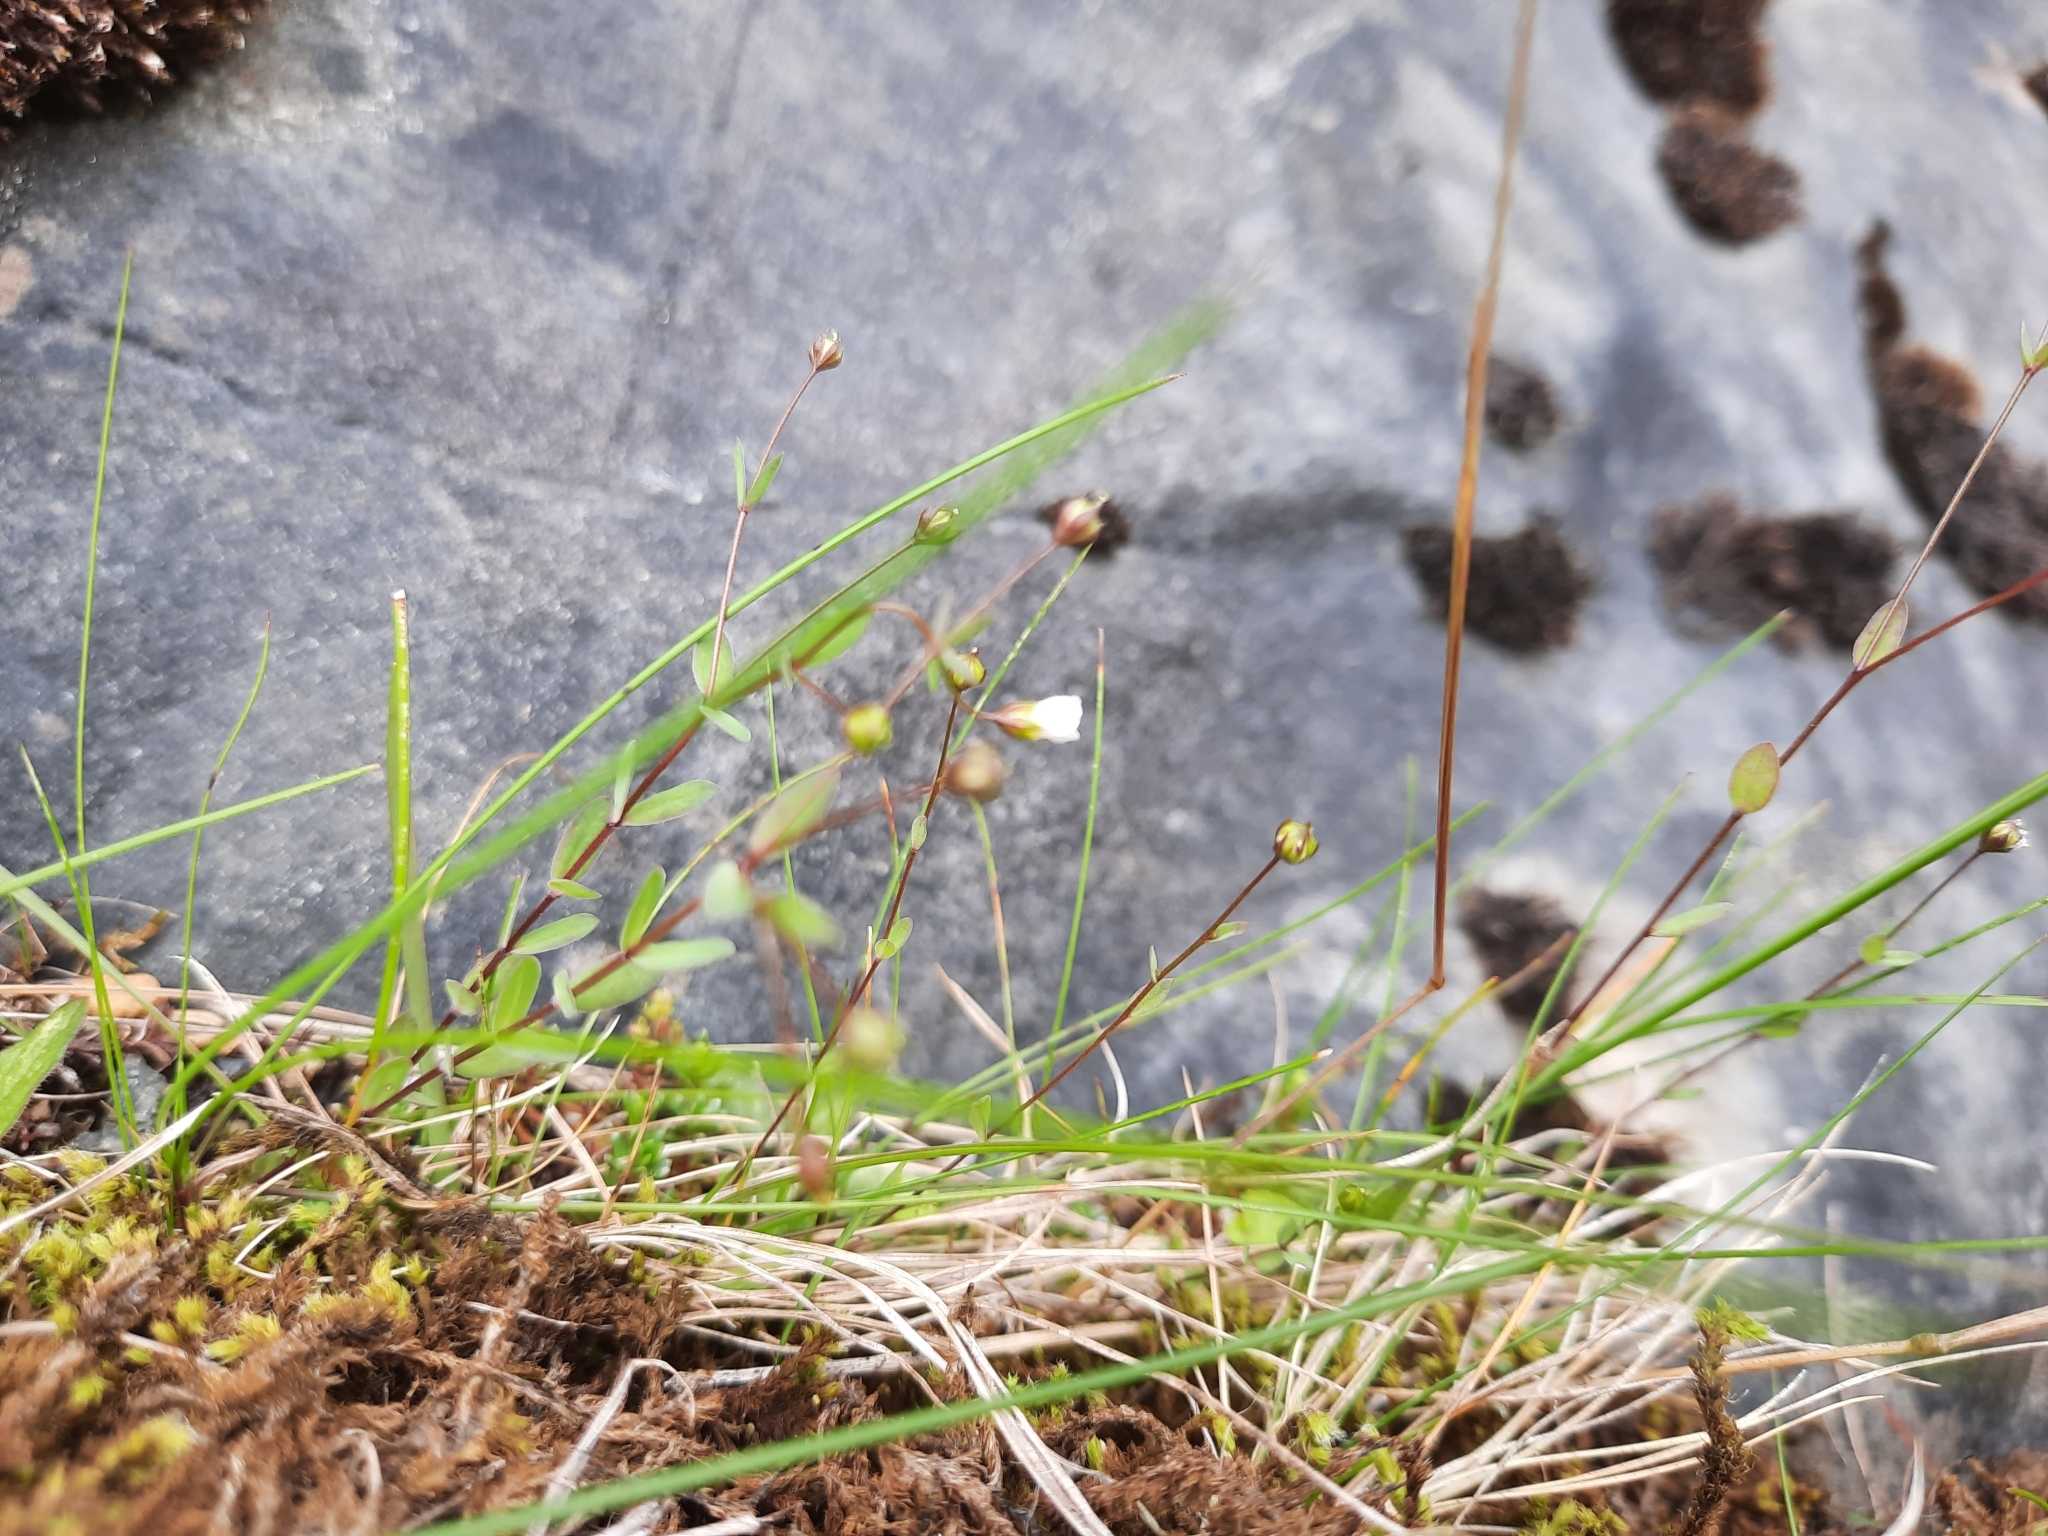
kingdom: Plantae
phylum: Tracheophyta
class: Magnoliopsida
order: Malpighiales
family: Linaceae
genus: Linum
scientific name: Linum catharticum
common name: Fairy flax
